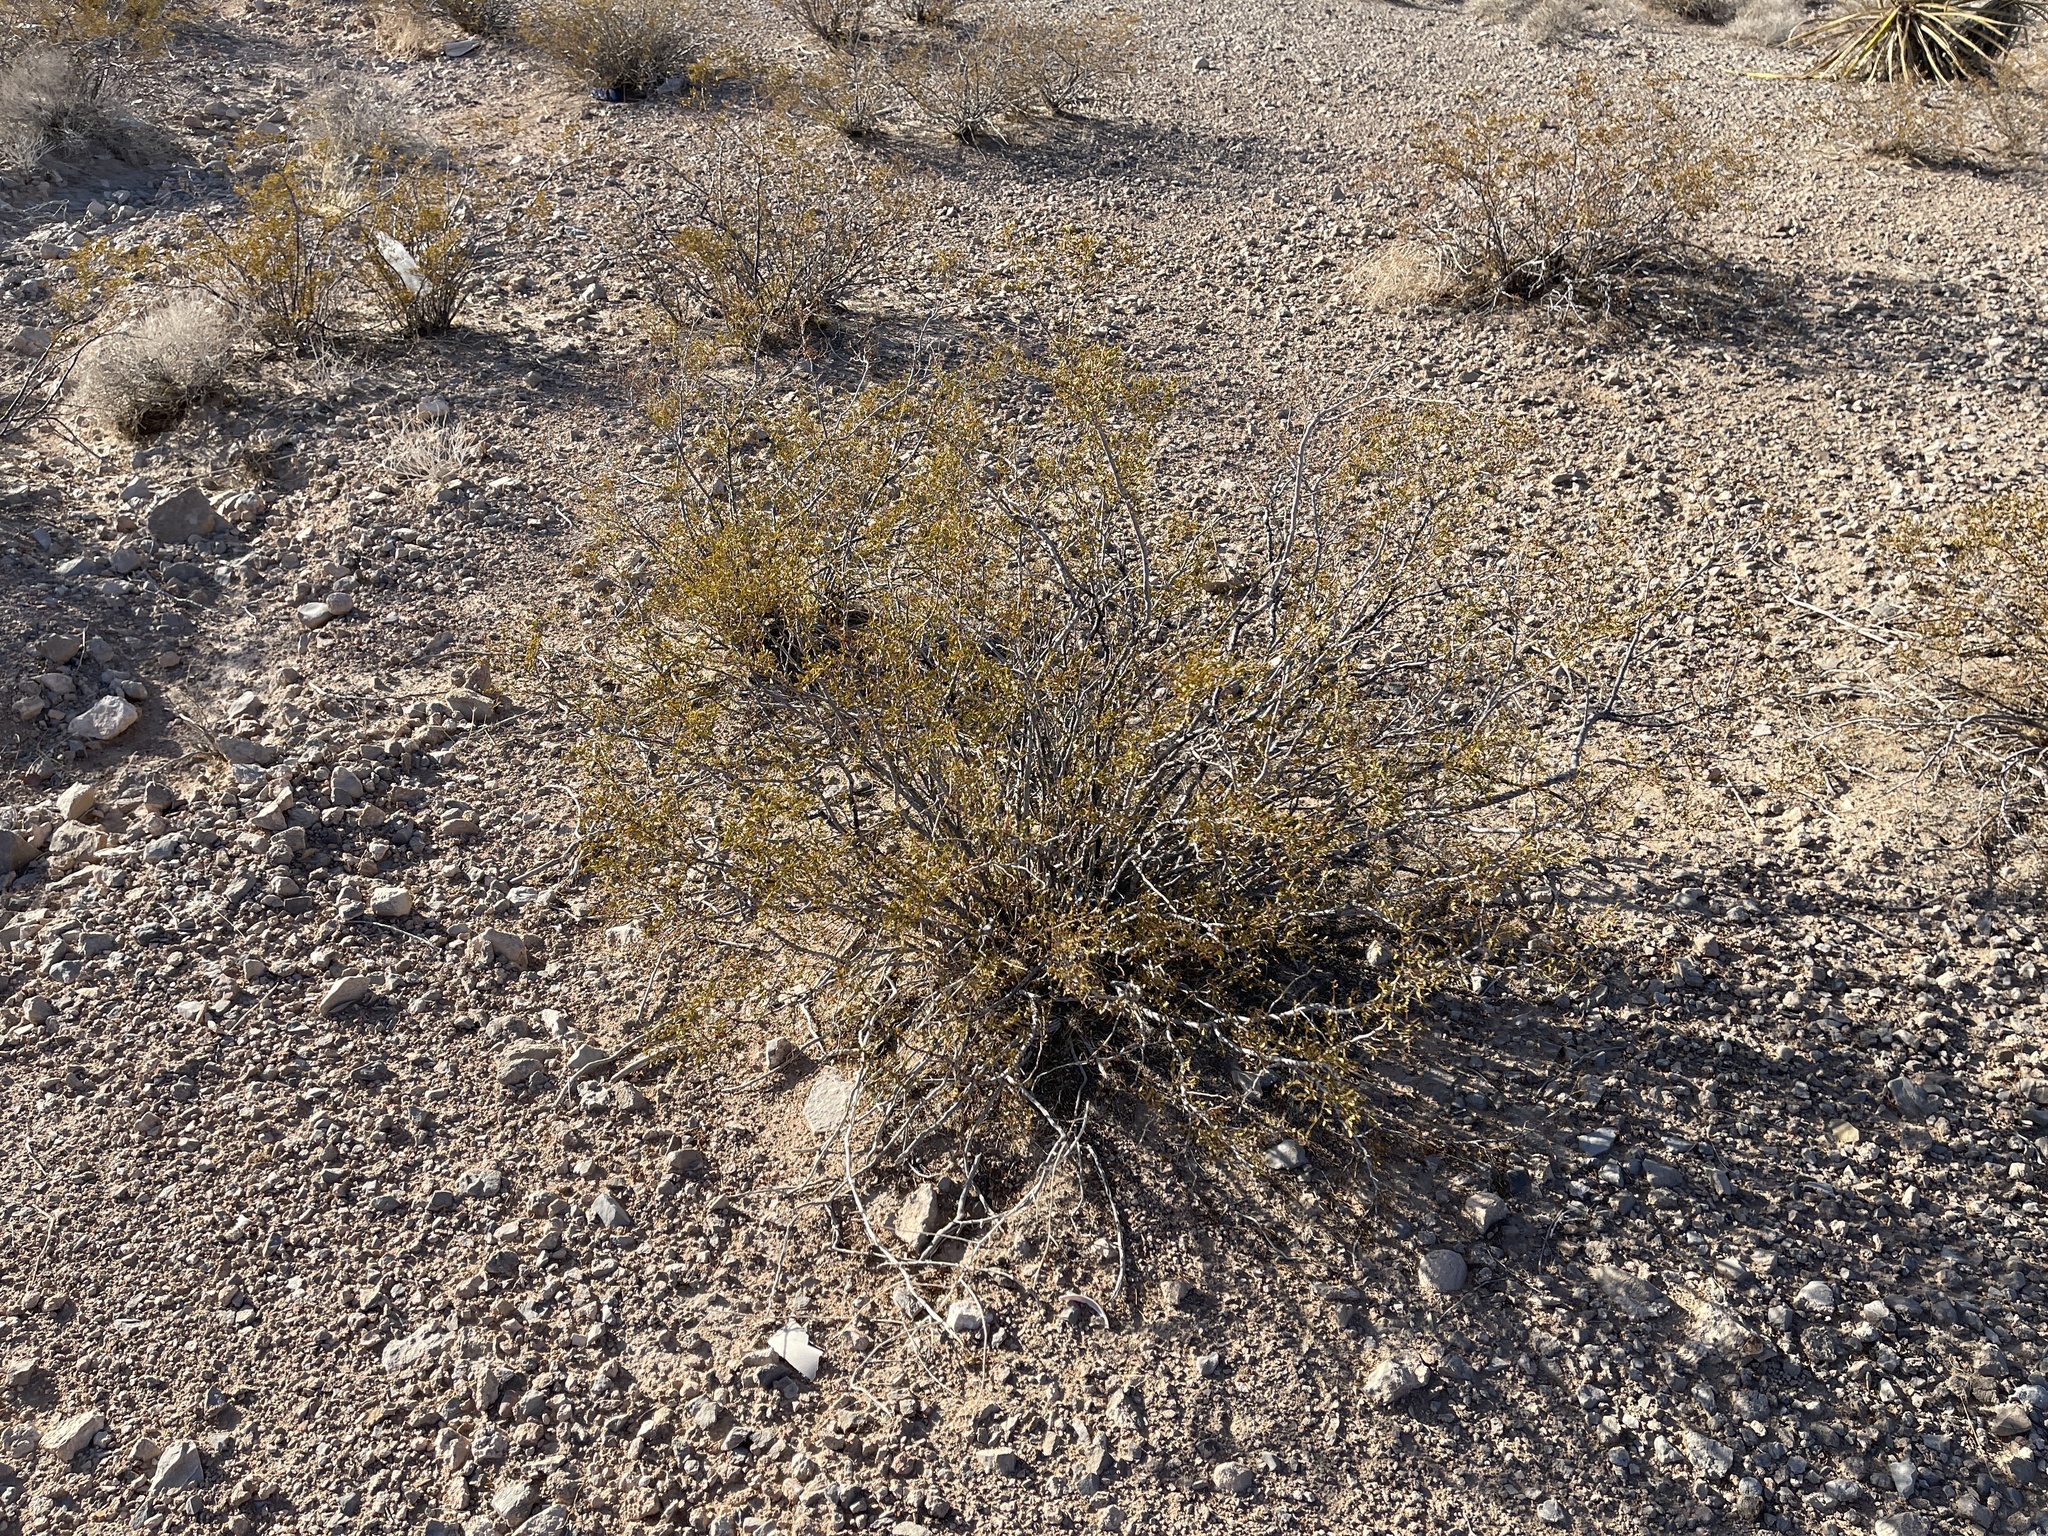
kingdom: Plantae
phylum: Tracheophyta
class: Magnoliopsida
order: Zygophyllales
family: Zygophyllaceae
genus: Larrea
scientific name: Larrea tridentata
